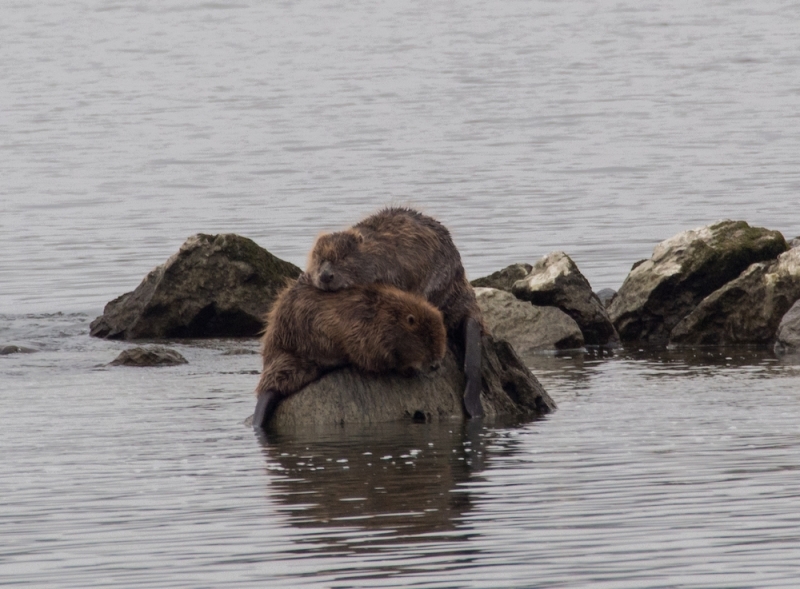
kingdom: Animalia
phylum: Chordata
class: Mammalia
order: Rodentia
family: Castoridae
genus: Castor
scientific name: Castor fiber
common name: Eurasian beaver
